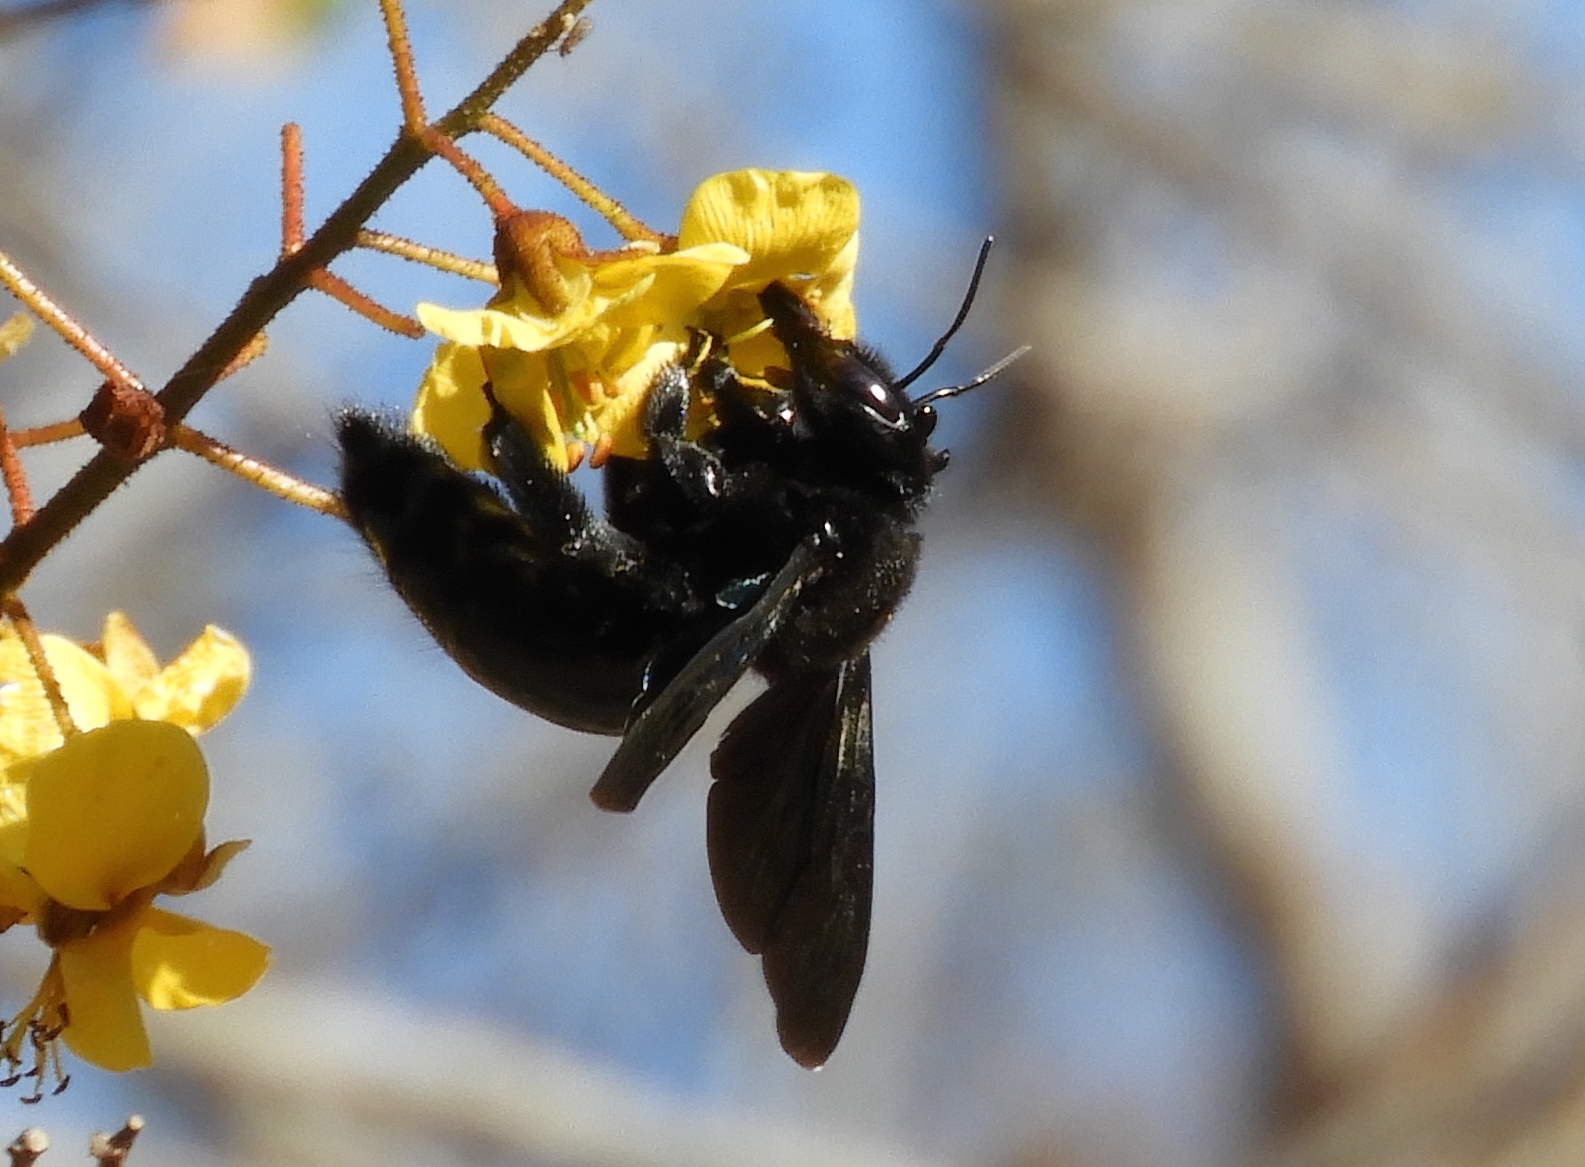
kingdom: Animalia
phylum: Arthropoda
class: Insecta
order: Hymenoptera
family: Apidae
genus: Xylocopa
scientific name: Xylocopa fimbriata
